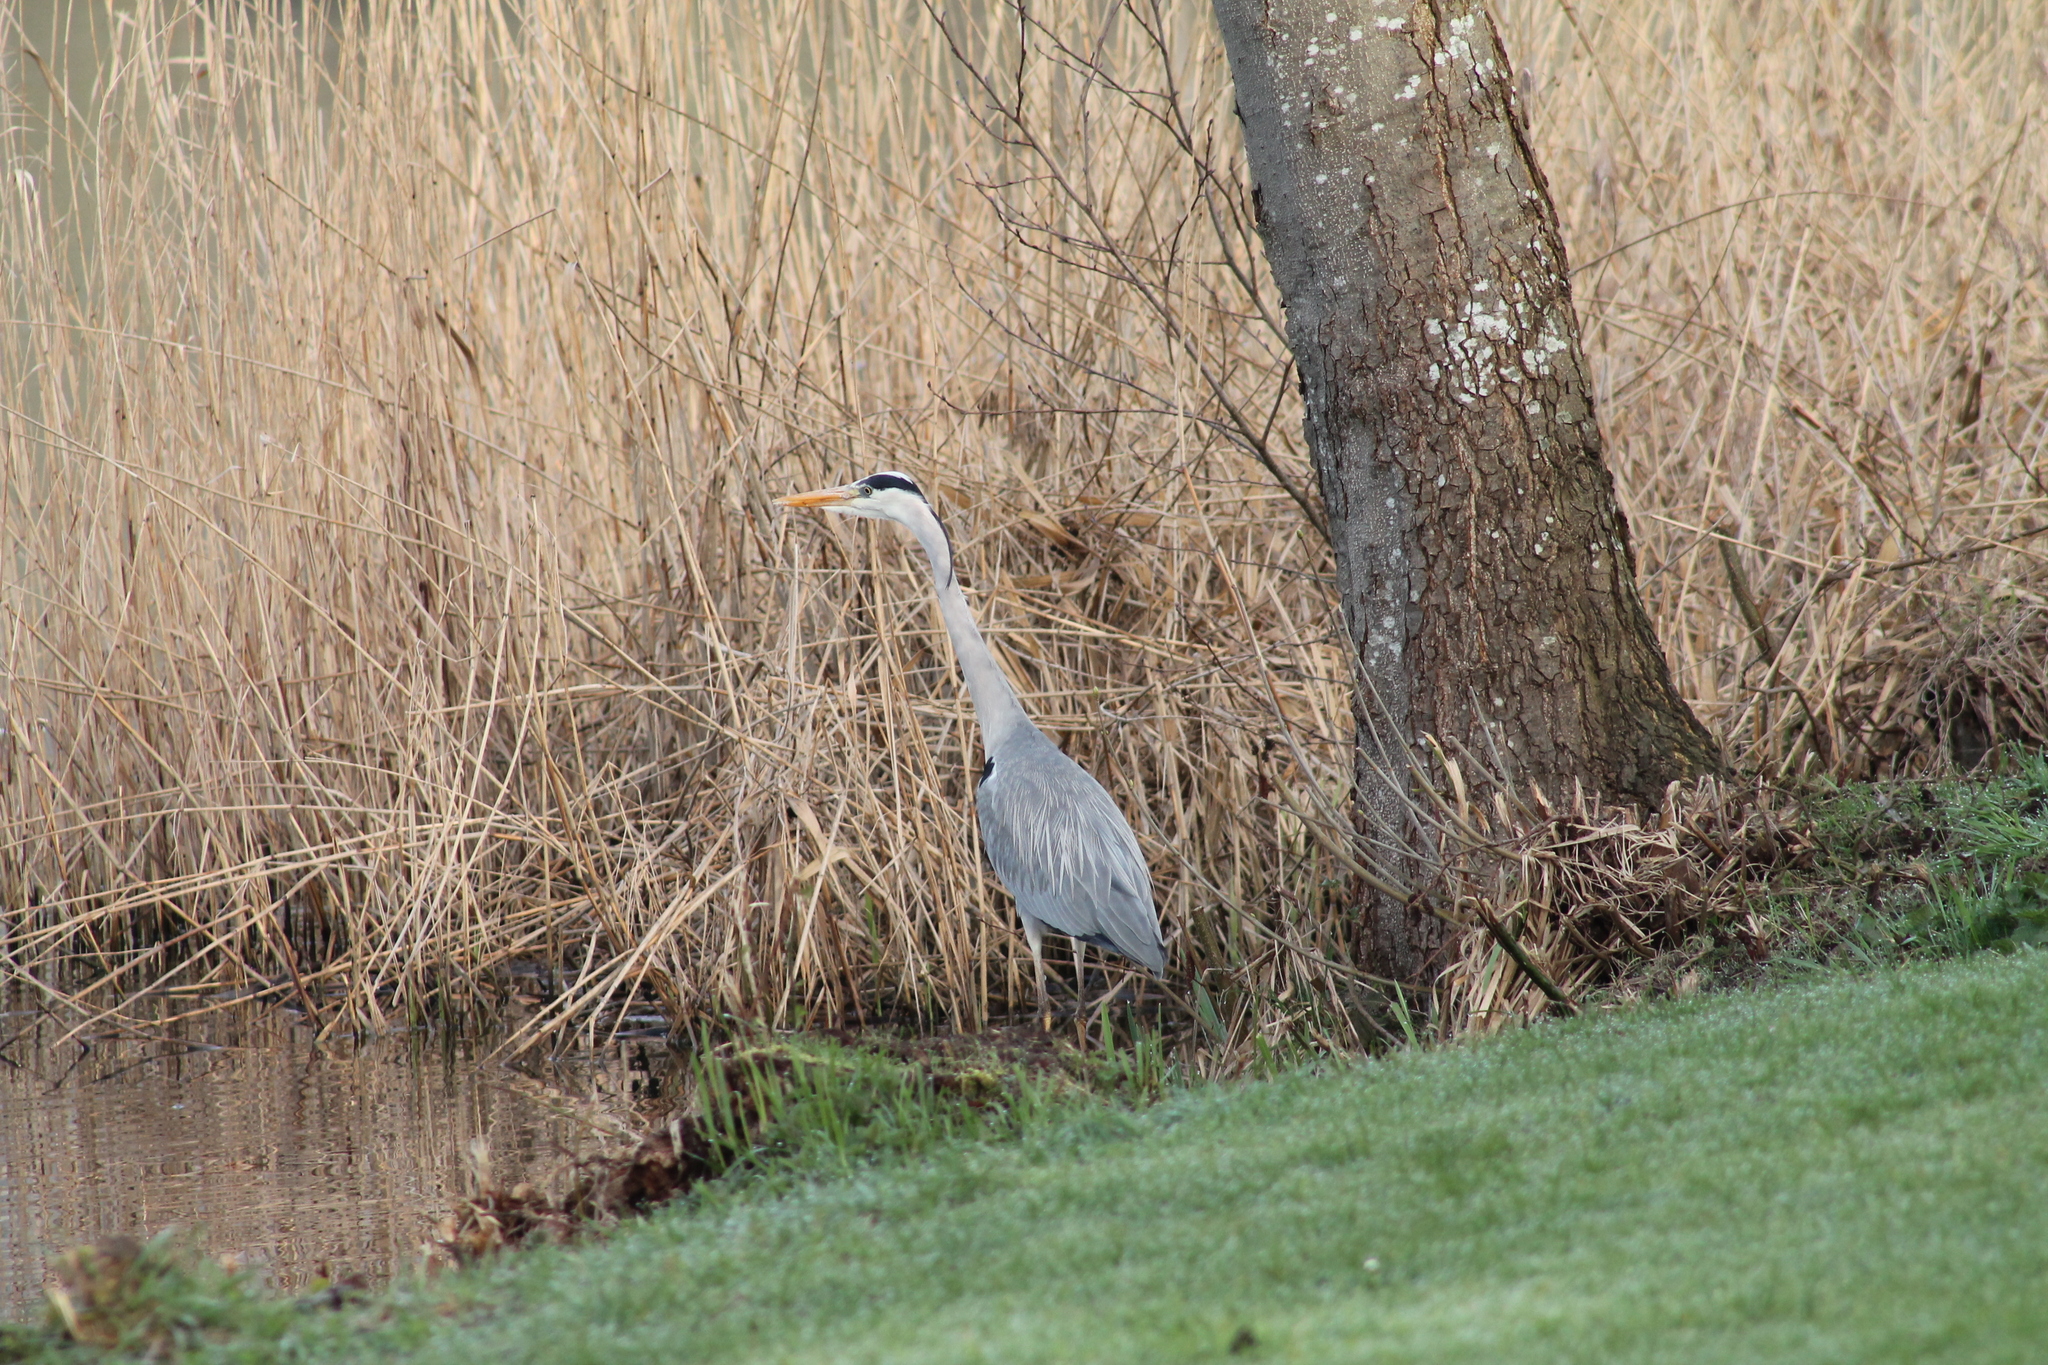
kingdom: Animalia
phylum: Chordata
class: Aves
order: Pelecaniformes
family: Ardeidae
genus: Ardea
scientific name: Ardea cinerea
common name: Grey heron
